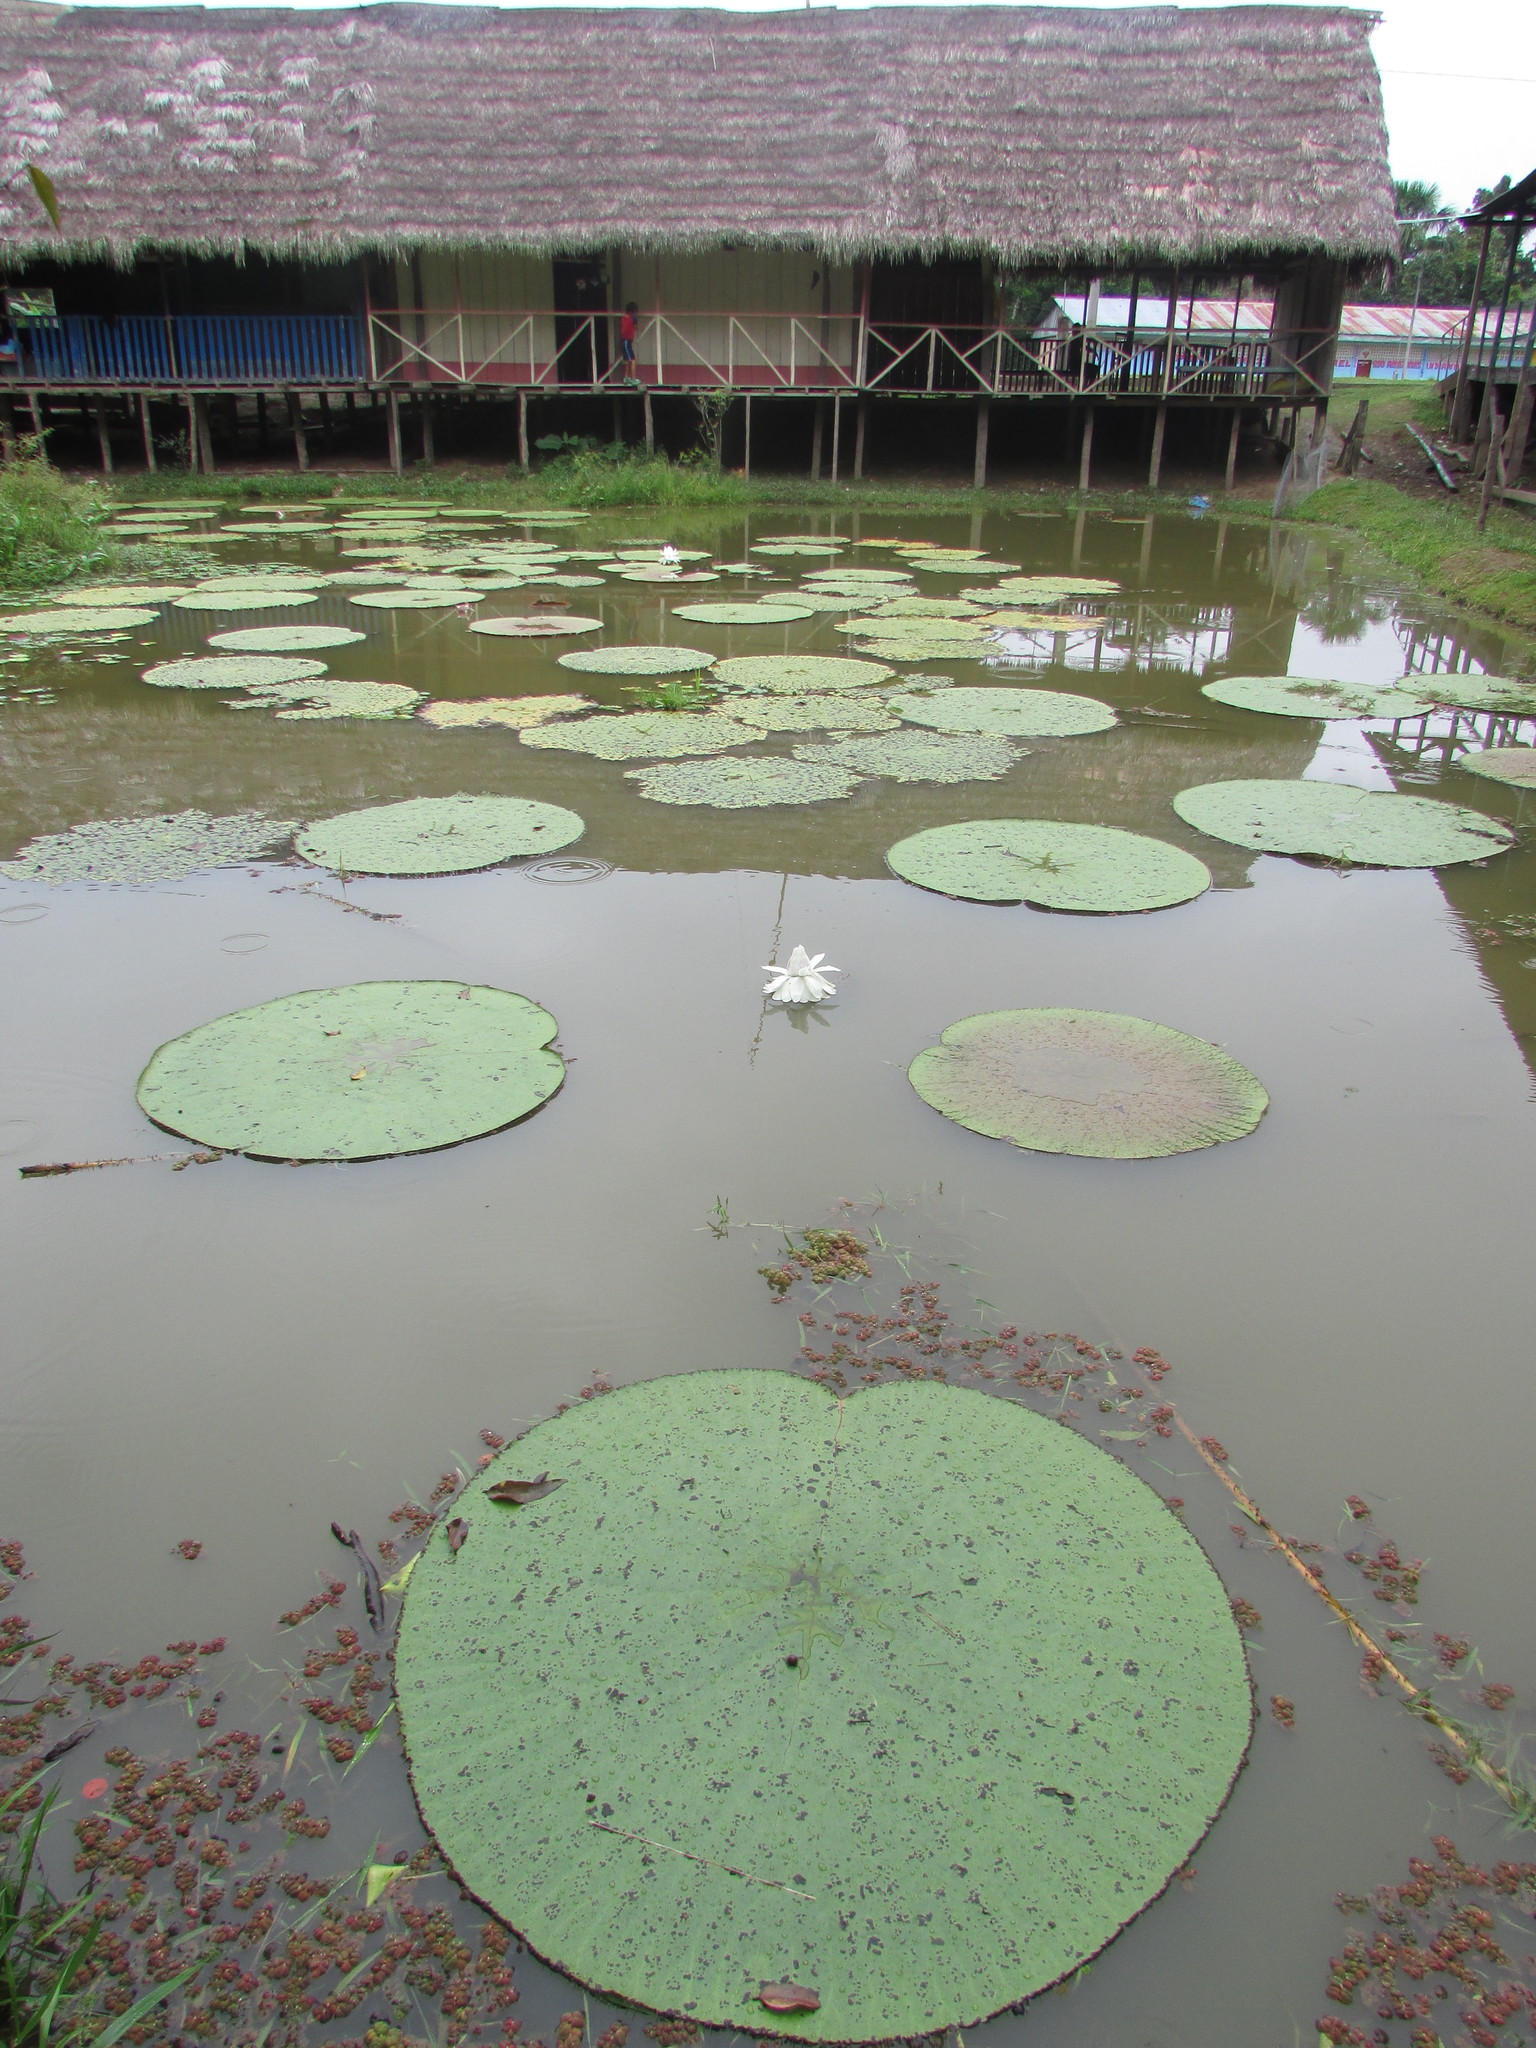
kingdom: Plantae
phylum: Tracheophyta
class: Magnoliopsida
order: Nymphaeales
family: Nymphaeaceae
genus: Victoria
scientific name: Victoria amazonica
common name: Amazon water-lily
